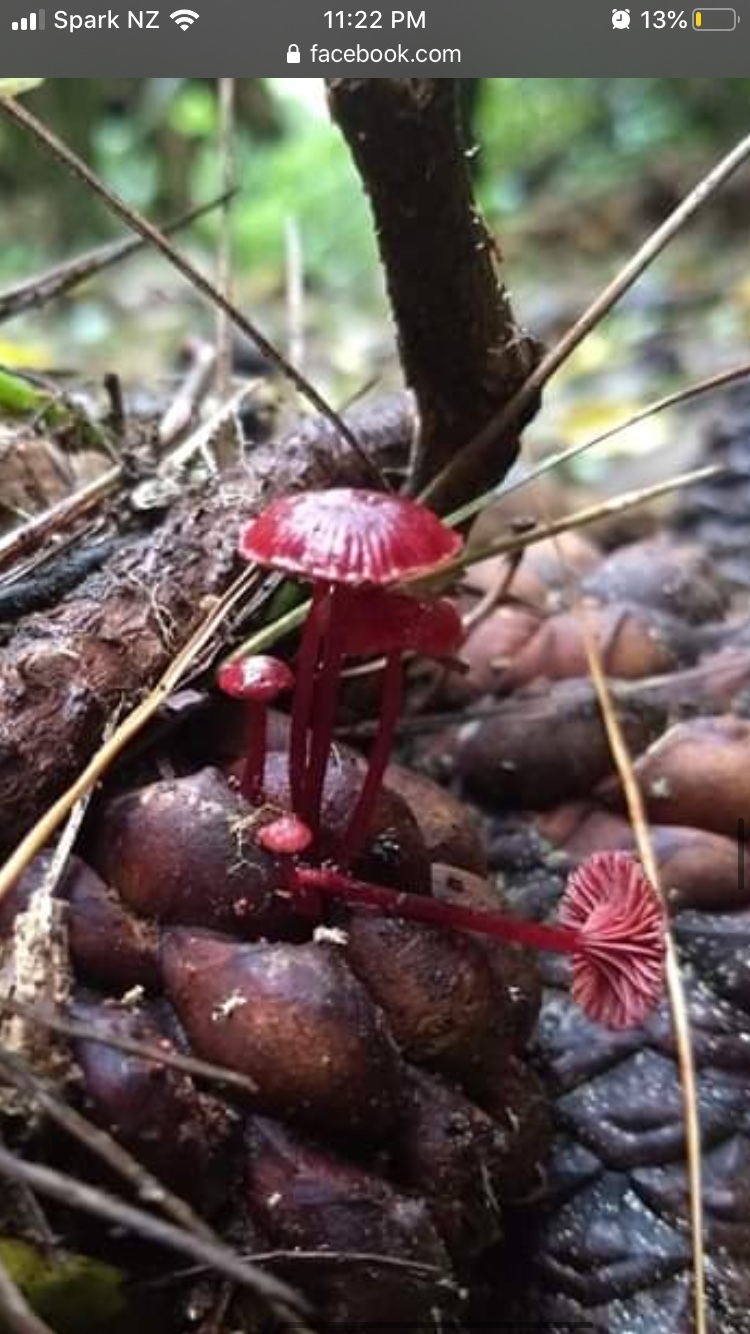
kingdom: Fungi
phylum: Basidiomycota
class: Agaricomycetes
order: Agaricales
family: Mycenaceae
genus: Cruentomycena
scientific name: Cruentomycena viscidocruenta
